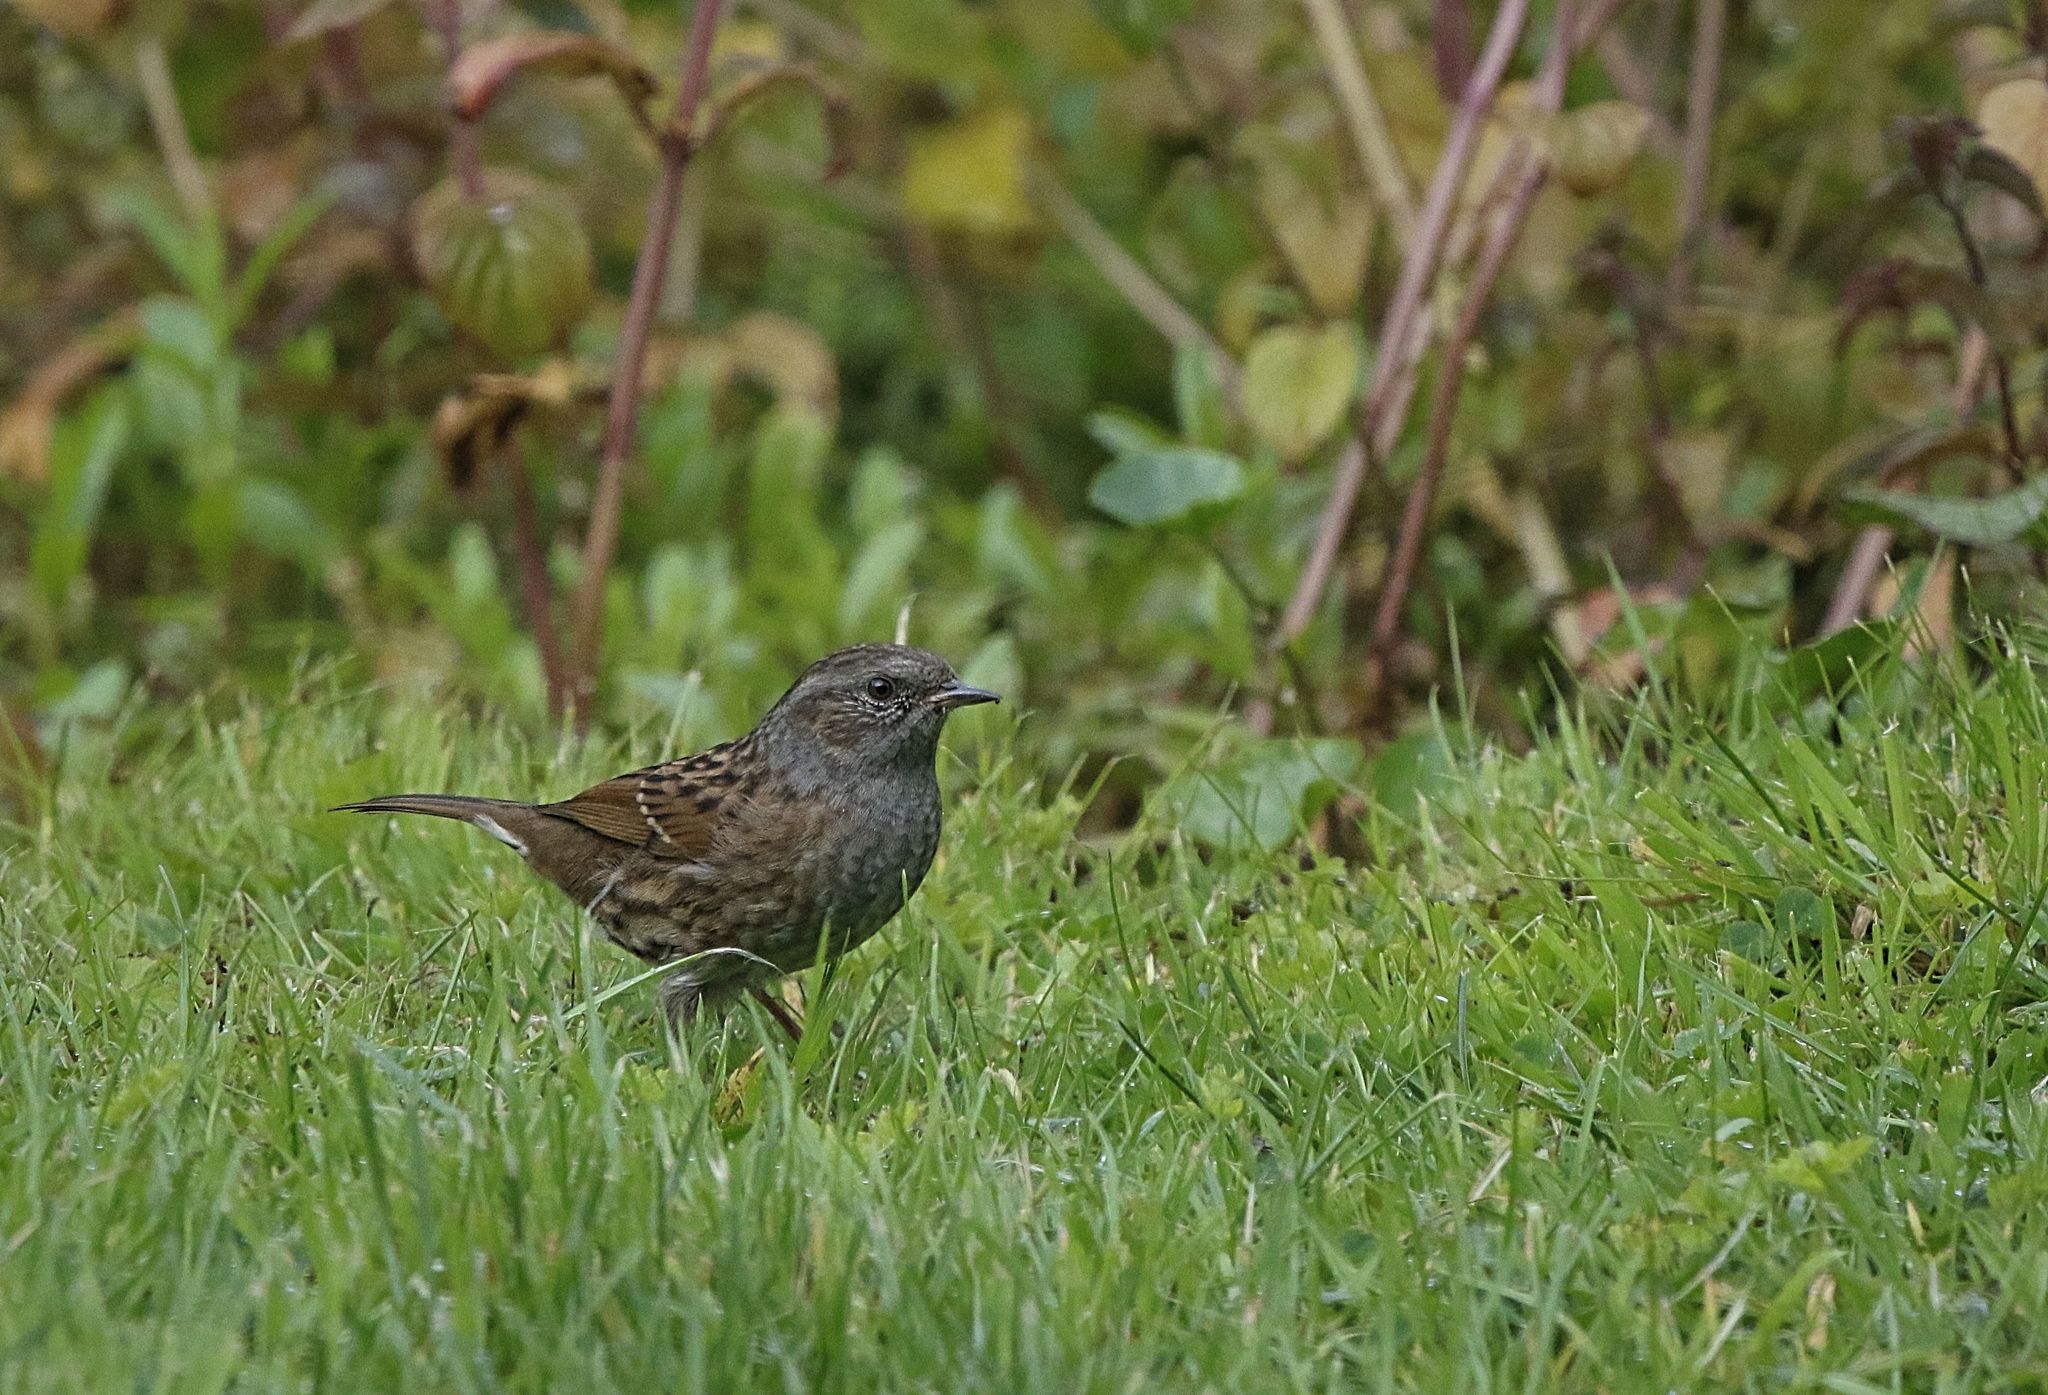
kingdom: Animalia
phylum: Chordata
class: Aves
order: Passeriformes
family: Prunellidae
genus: Prunella
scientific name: Prunella modularis
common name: Dunnock
